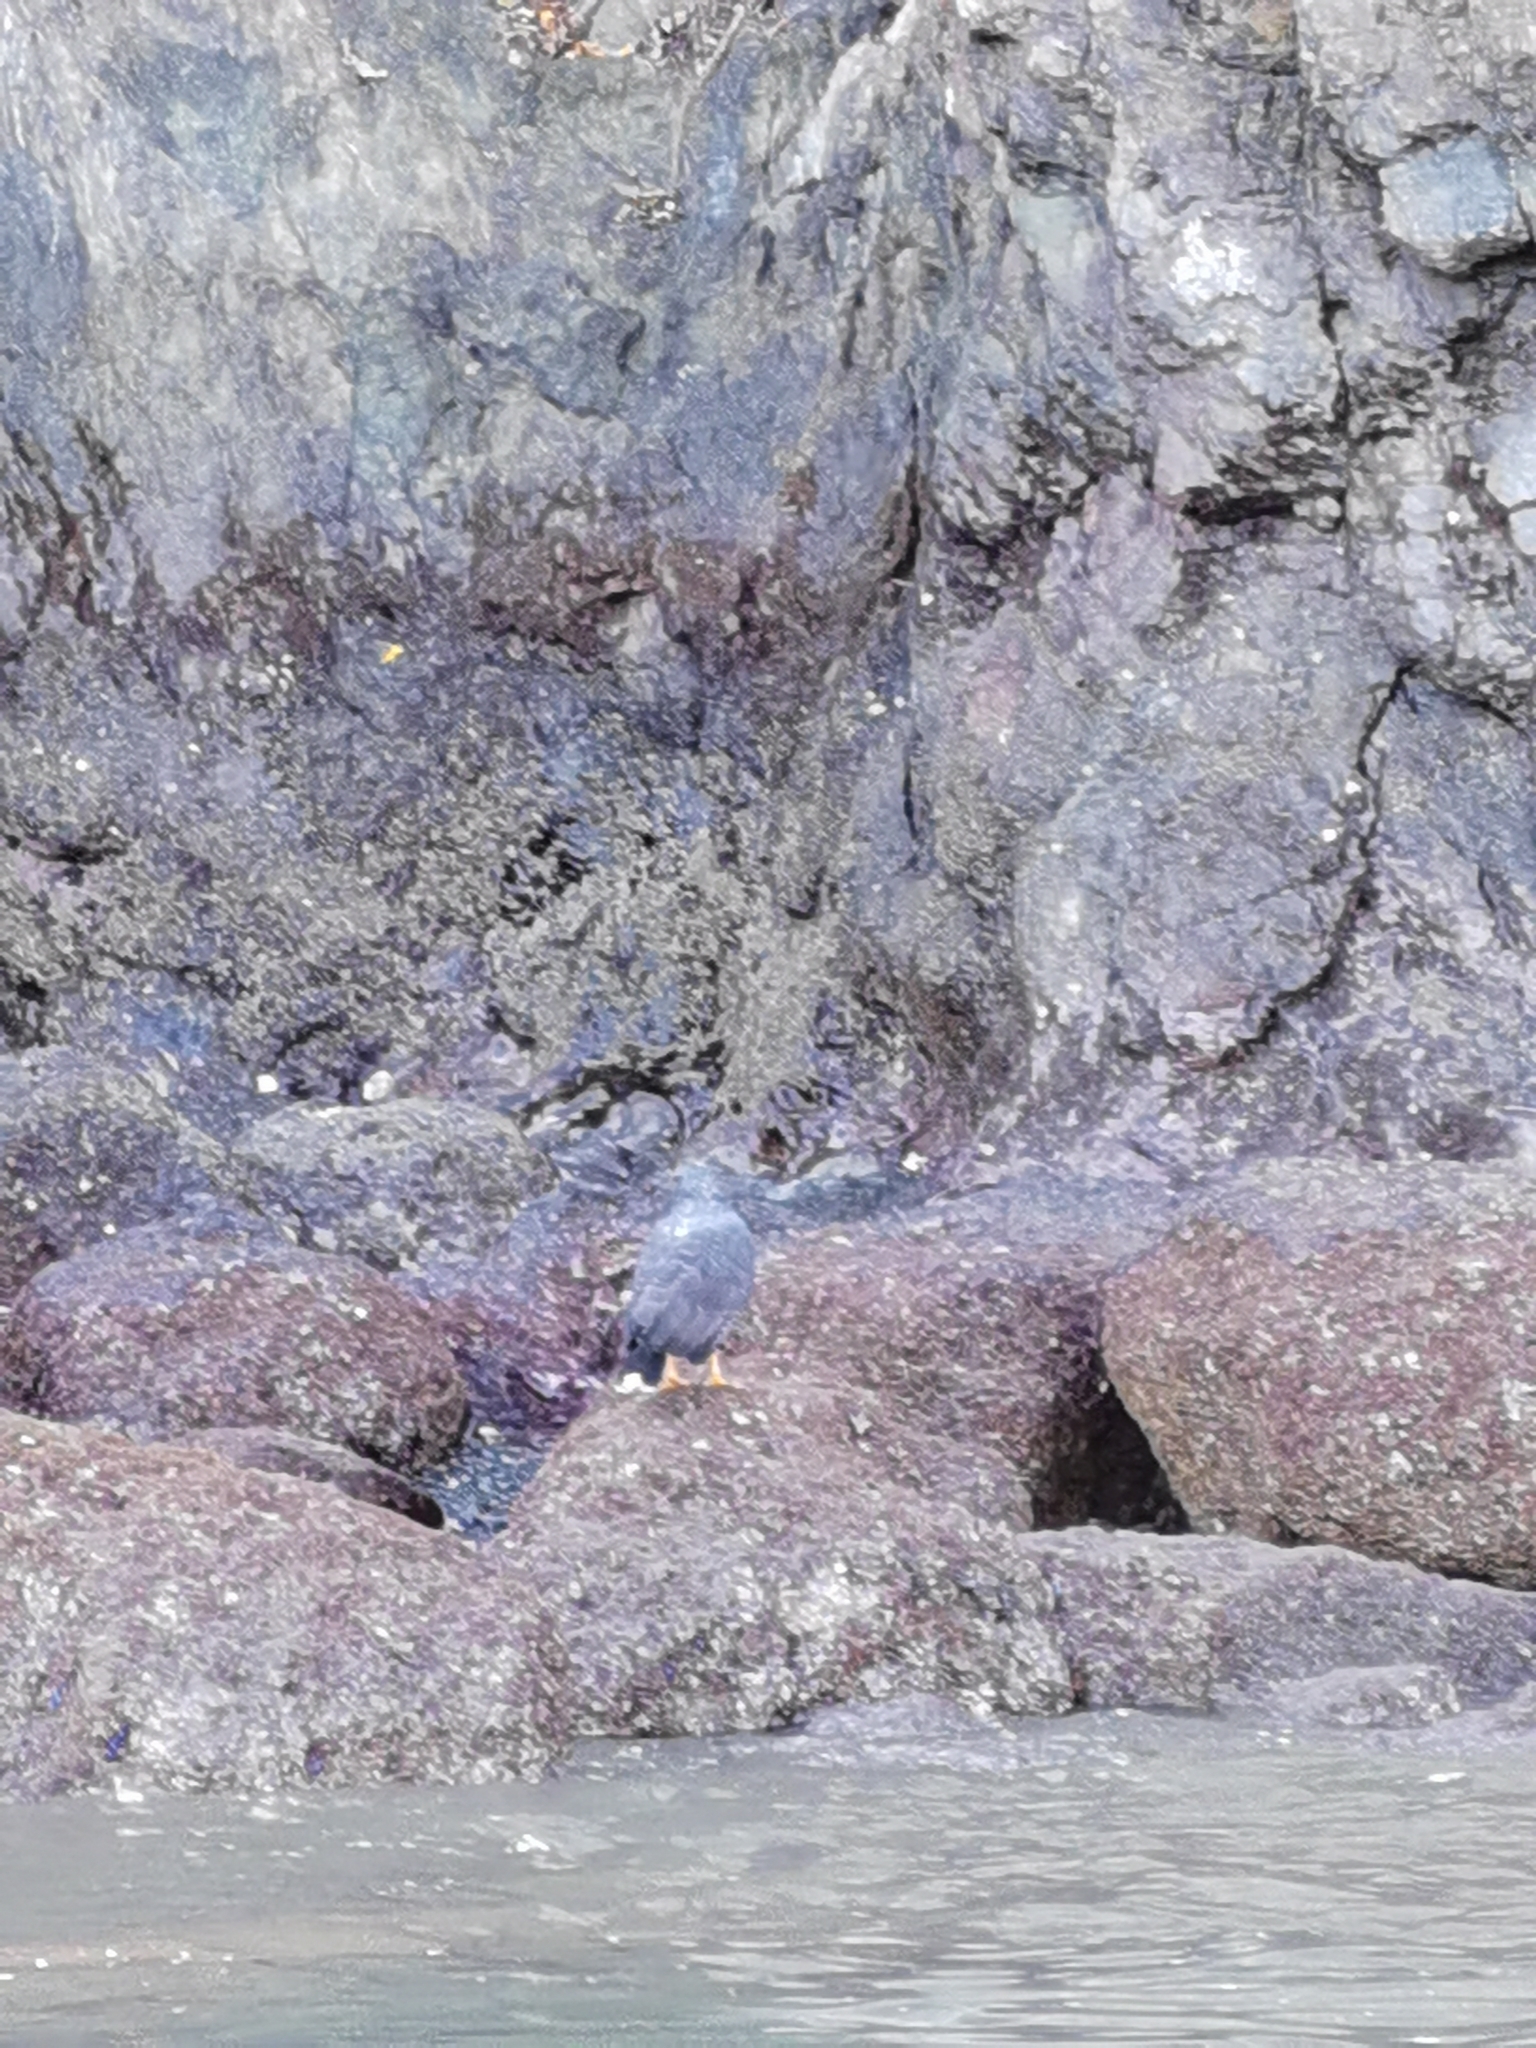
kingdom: Animalia
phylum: Chordata
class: Aves
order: Accipitriformes
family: Accipitridae
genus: Buteogallus
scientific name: Buteogallus anthracinus
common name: Common black hawk
